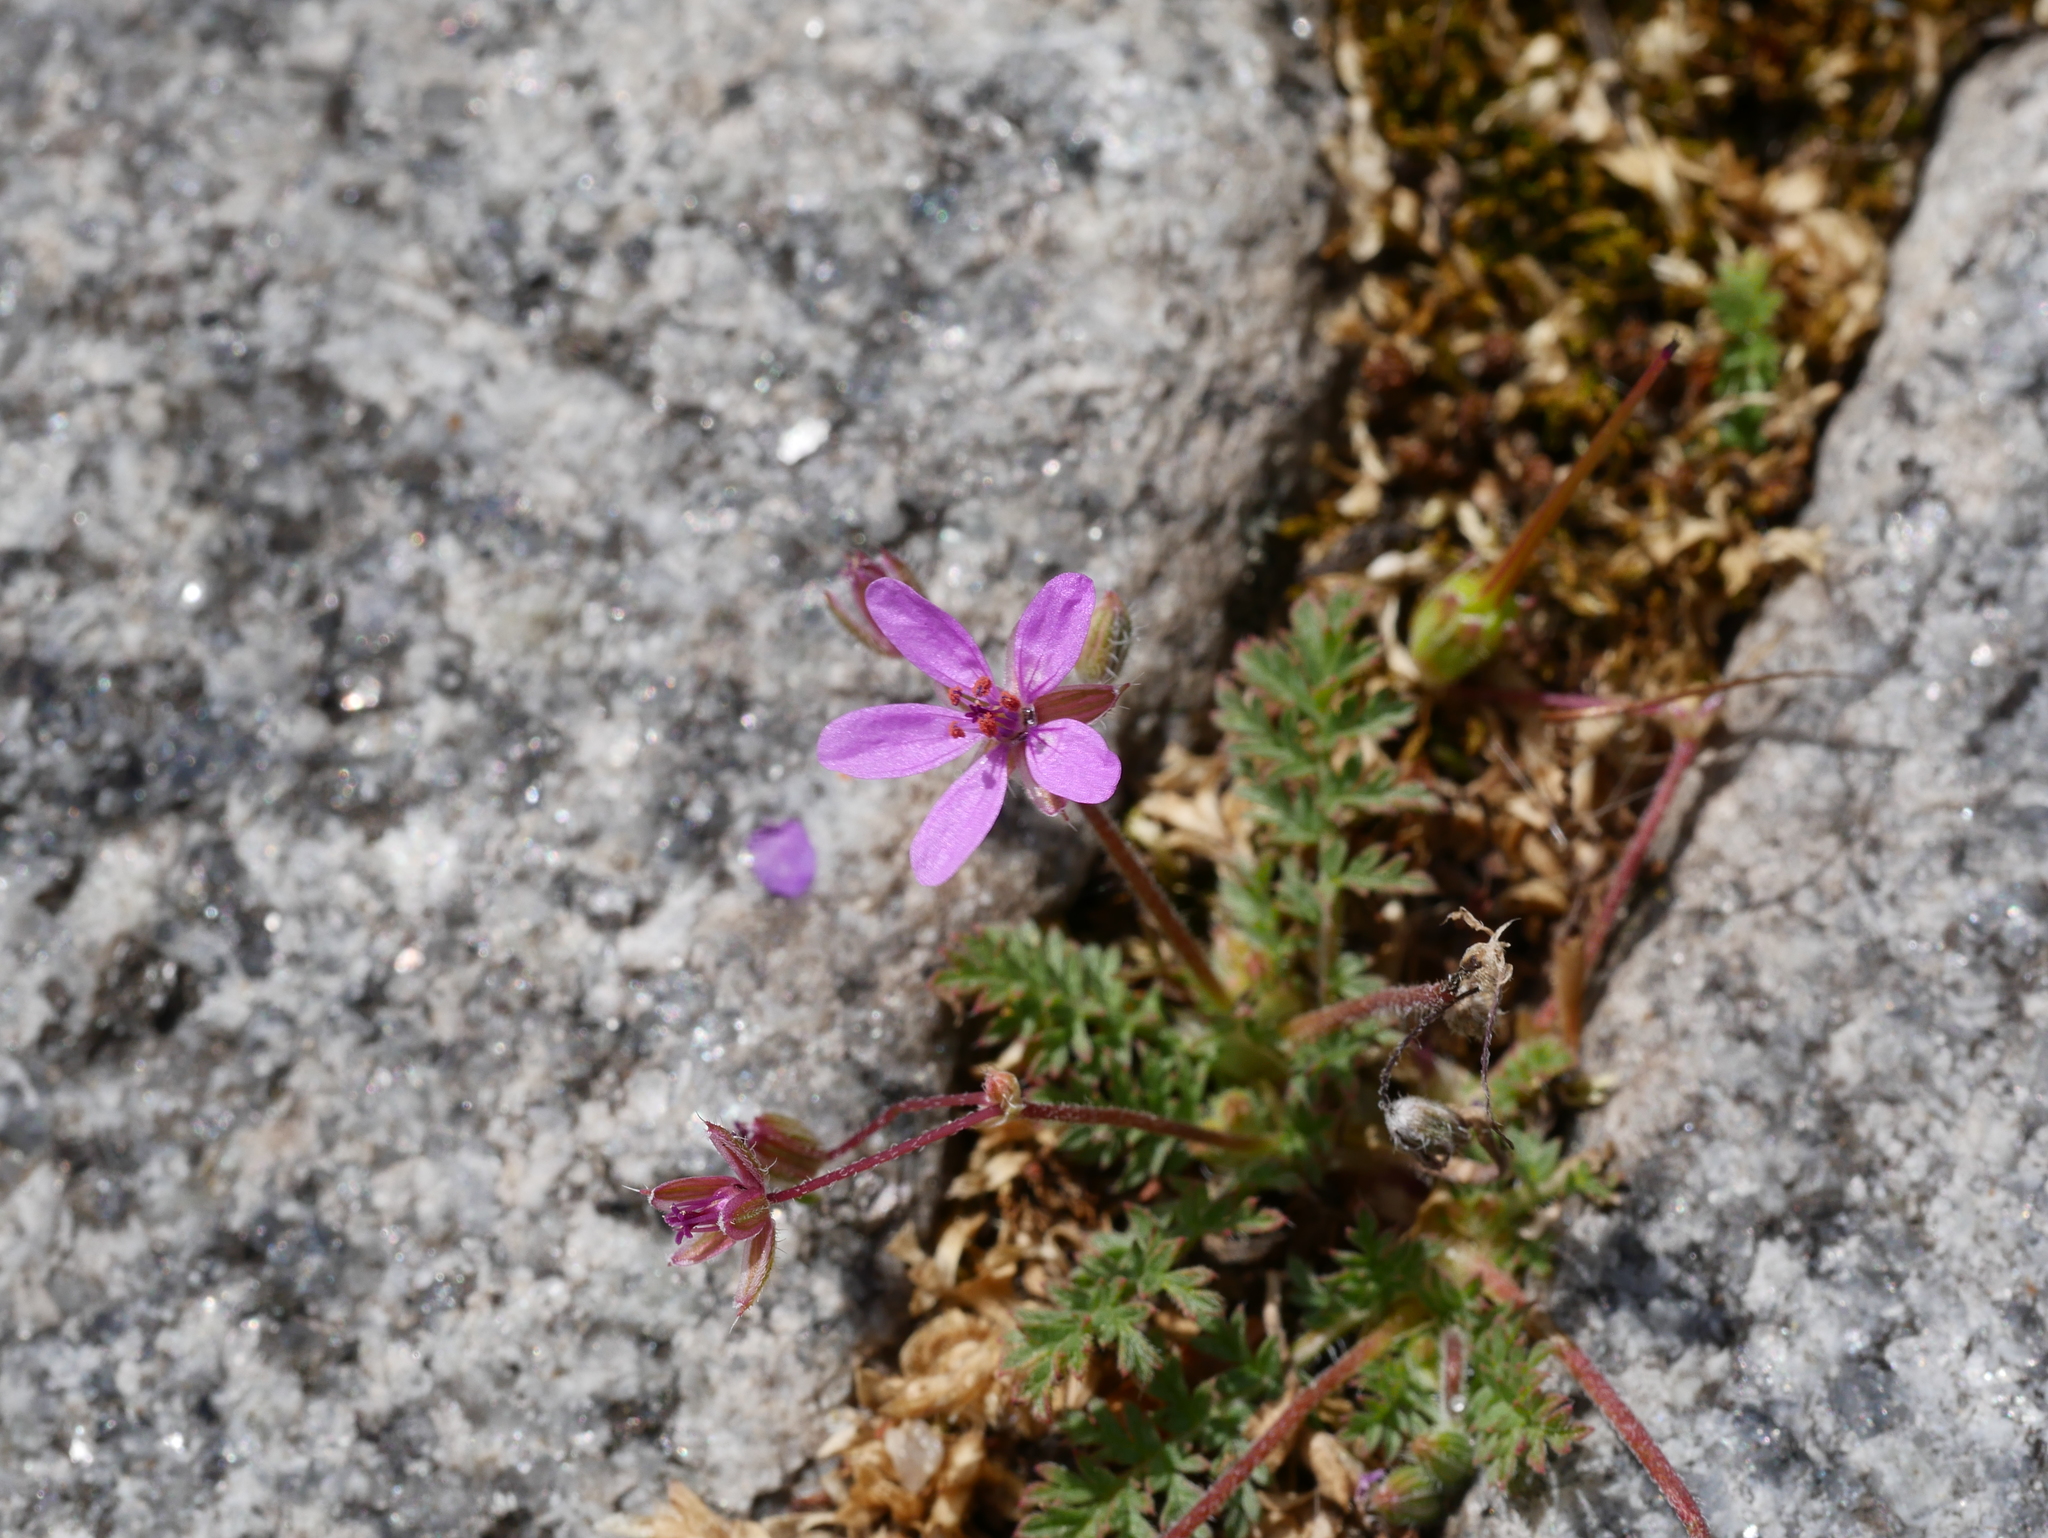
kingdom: Plantae
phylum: Tracheophyta
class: Magnoliopsida
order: Geraniales
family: Geraniaceae
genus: Erodium
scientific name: Erodium cicutarium
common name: Common stork's-bill
